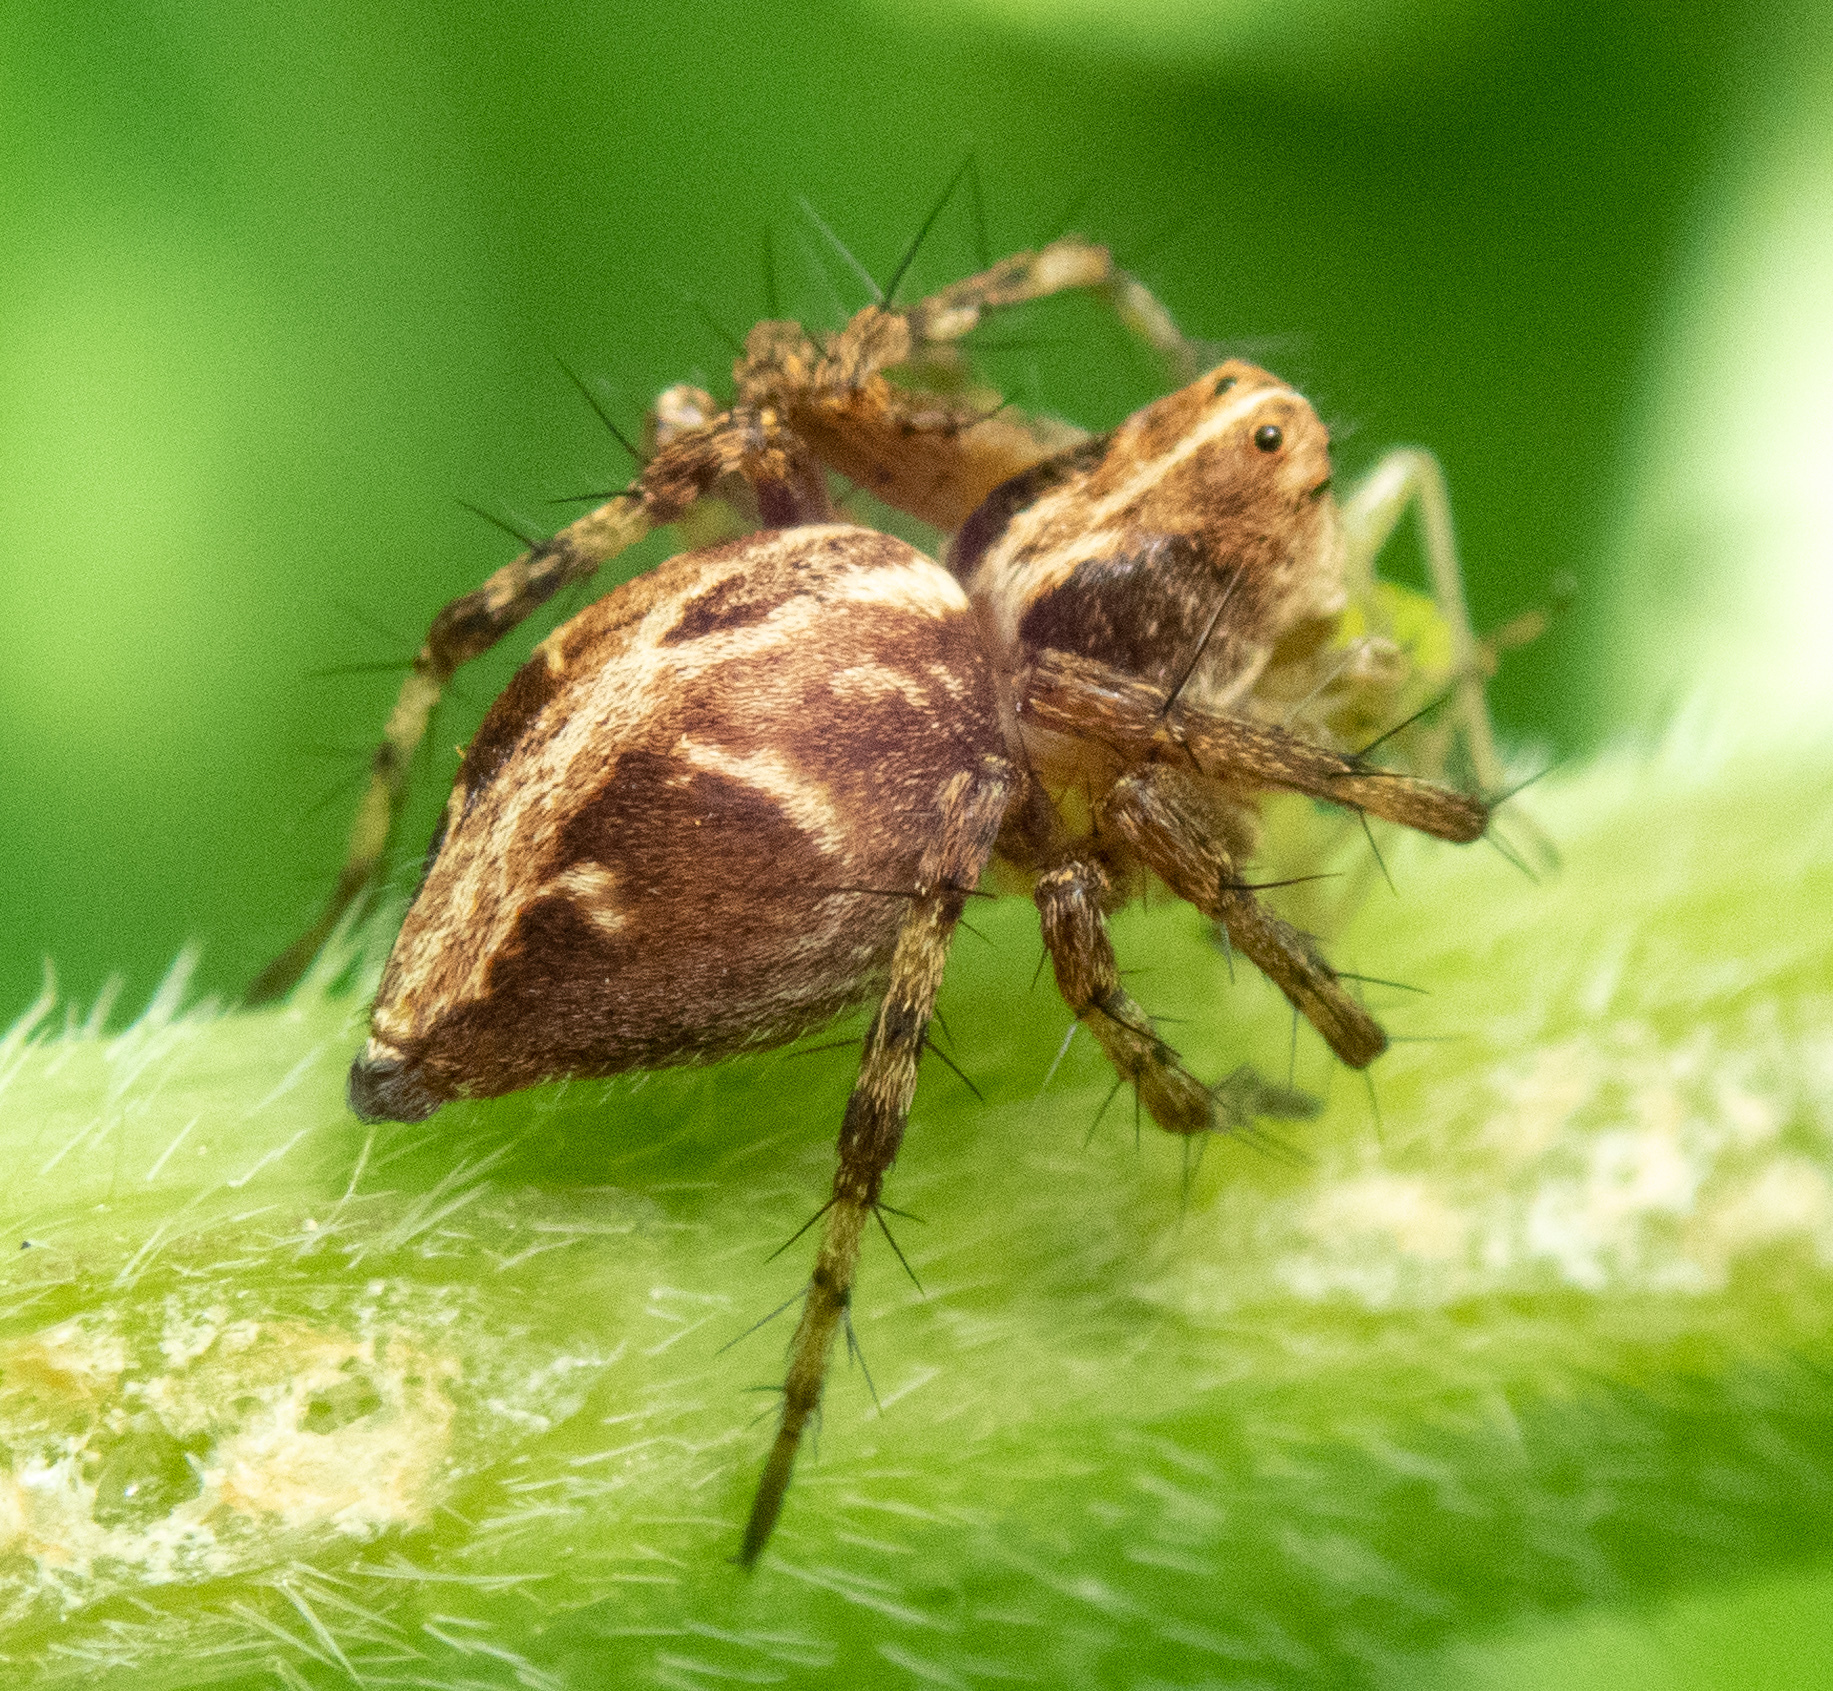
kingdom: Animalia
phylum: Arthropoda
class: Arachnida
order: Araneae
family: Oxyopidae
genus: Oxyopes
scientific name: Oxyopes scalaris
